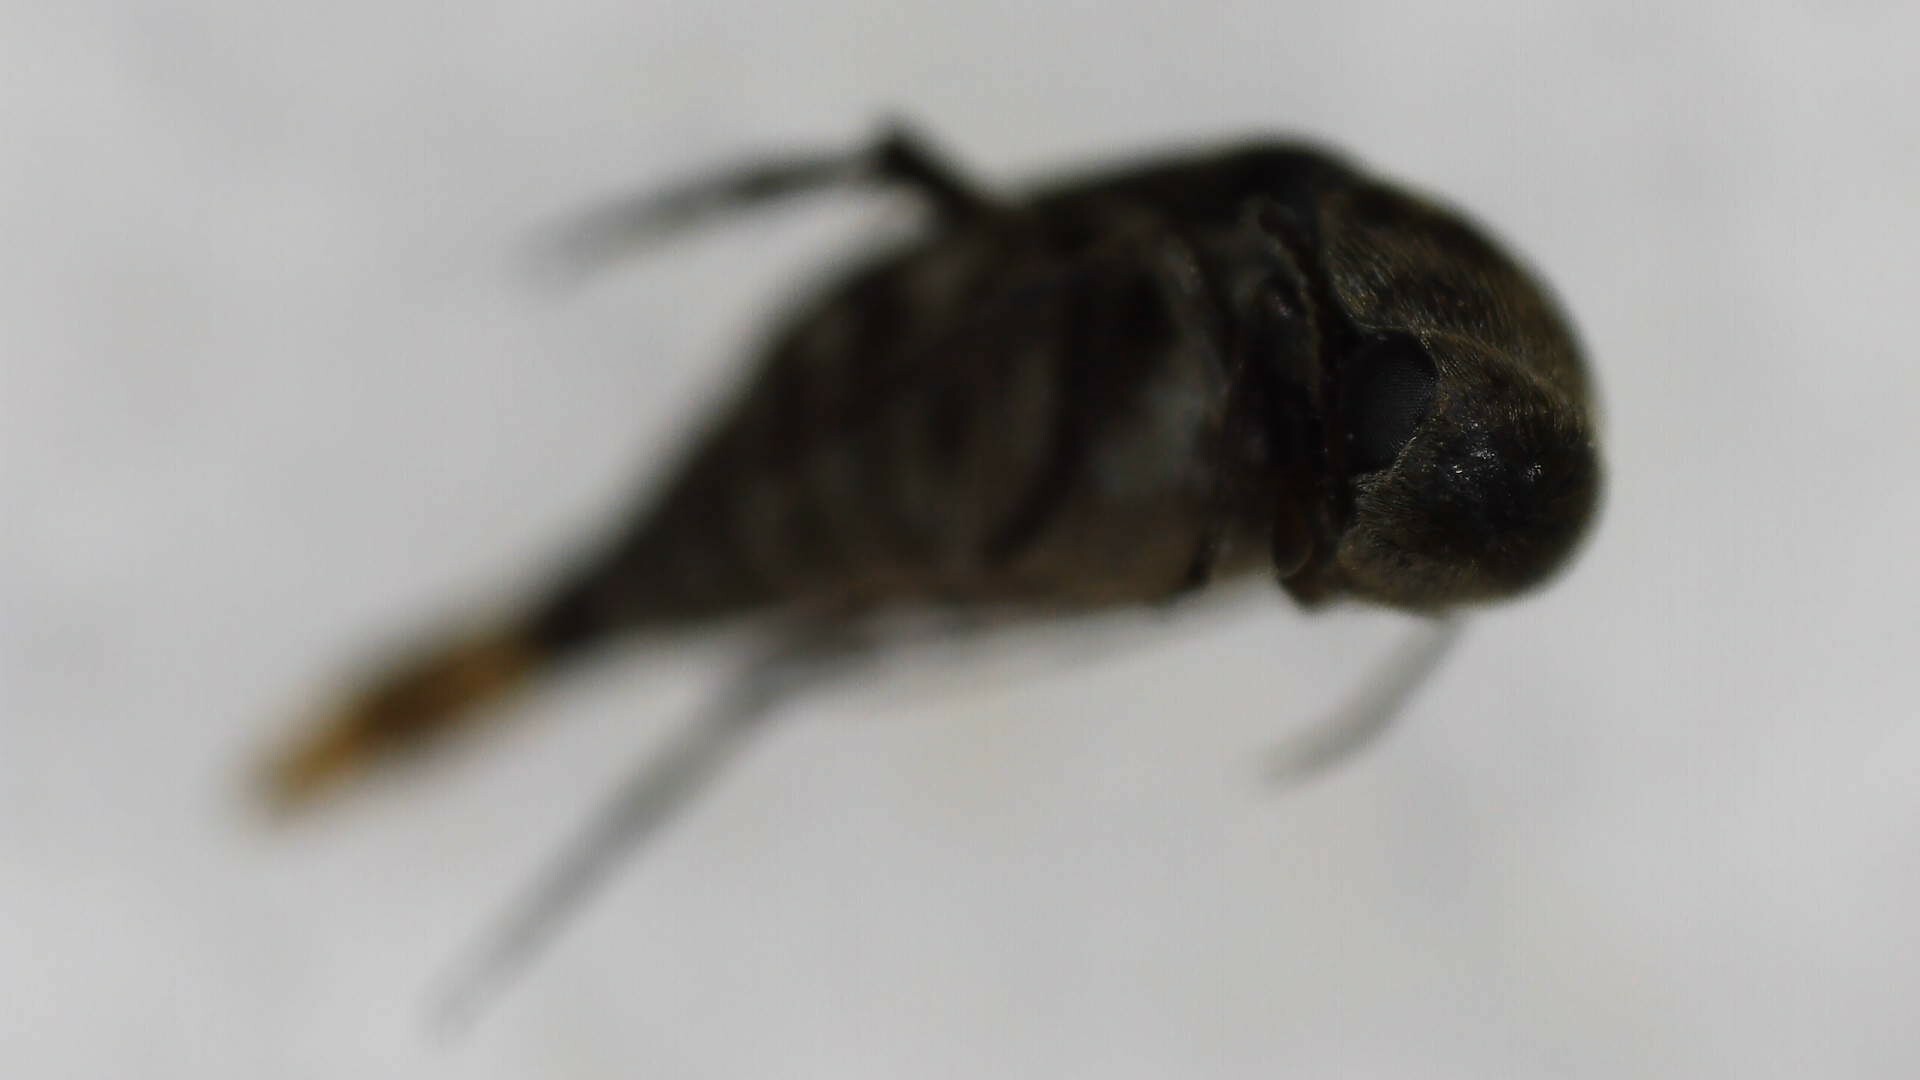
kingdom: Animalia
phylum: Arthropoda
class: Insecta
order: Coleoptera
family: Mordellidae
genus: Mordella
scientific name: Mordella marginata
